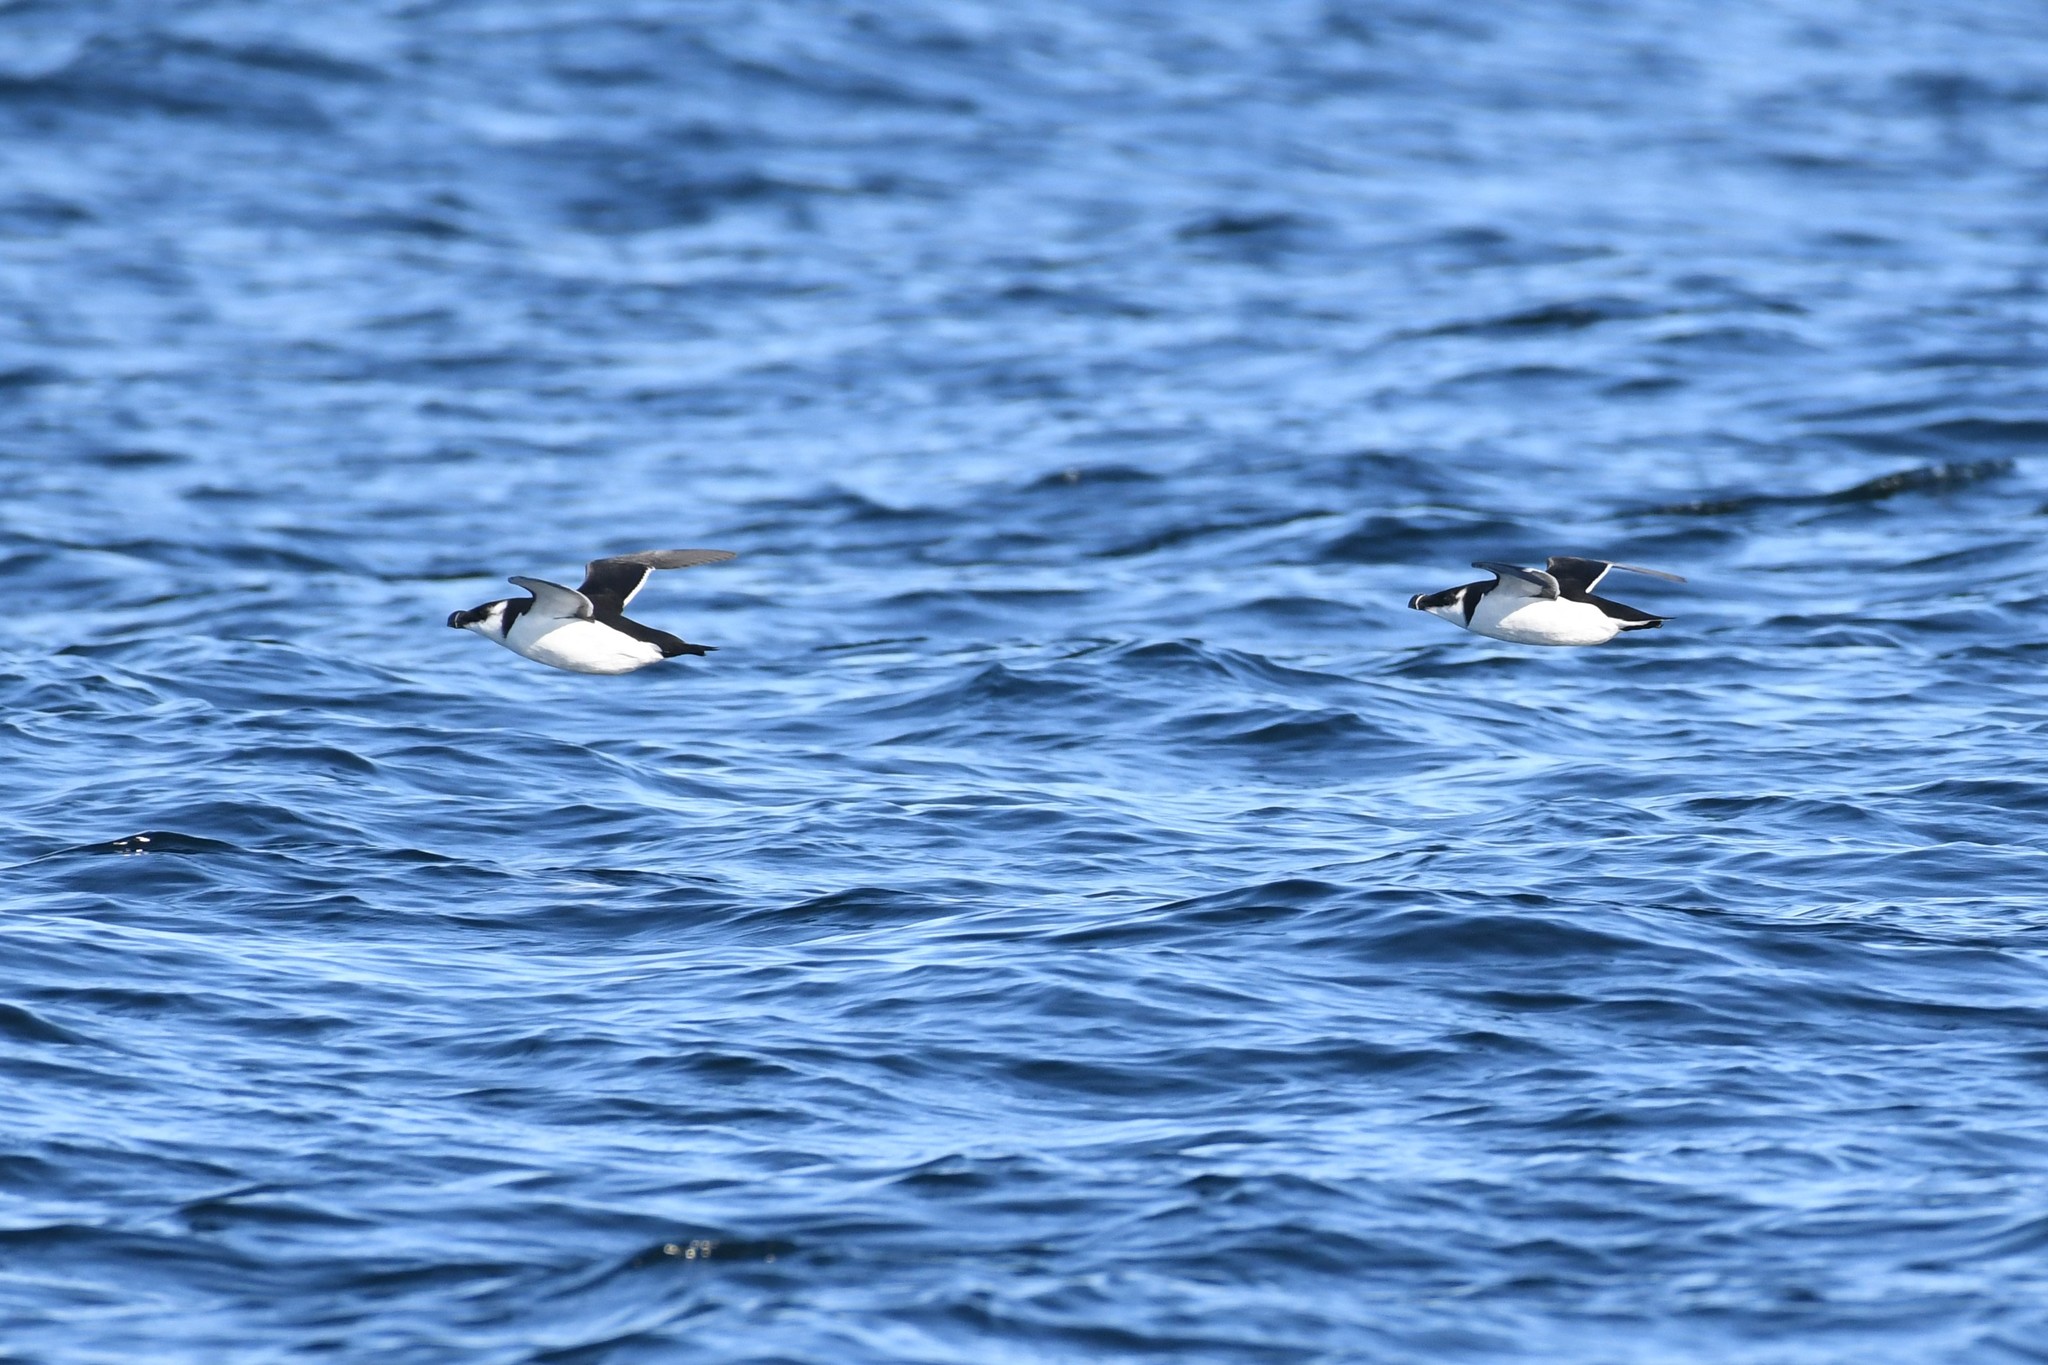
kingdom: Animalia
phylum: Chordata
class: Aves
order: Charadriiformes
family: Alcidae
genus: Alca
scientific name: Alca torda
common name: Razorbill
